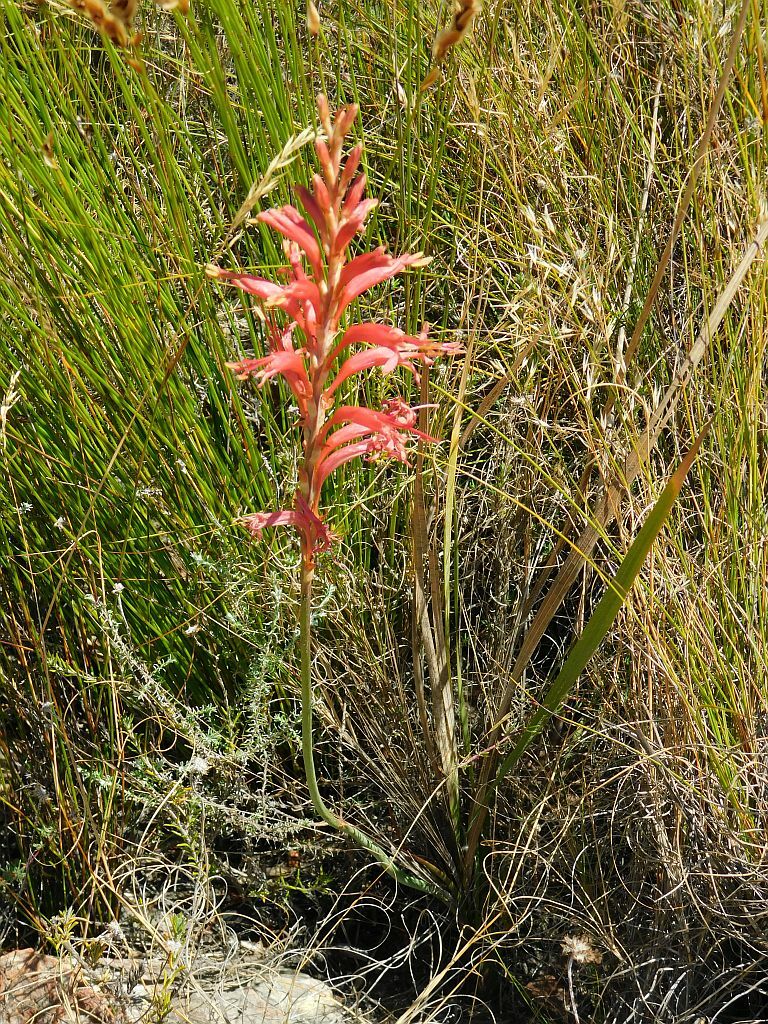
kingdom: Plantae
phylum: Tracheophyta
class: Liliopsida
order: Asparagales
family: Iridaceae
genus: Tritoniopsis
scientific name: Tritoniopsis antholyza
